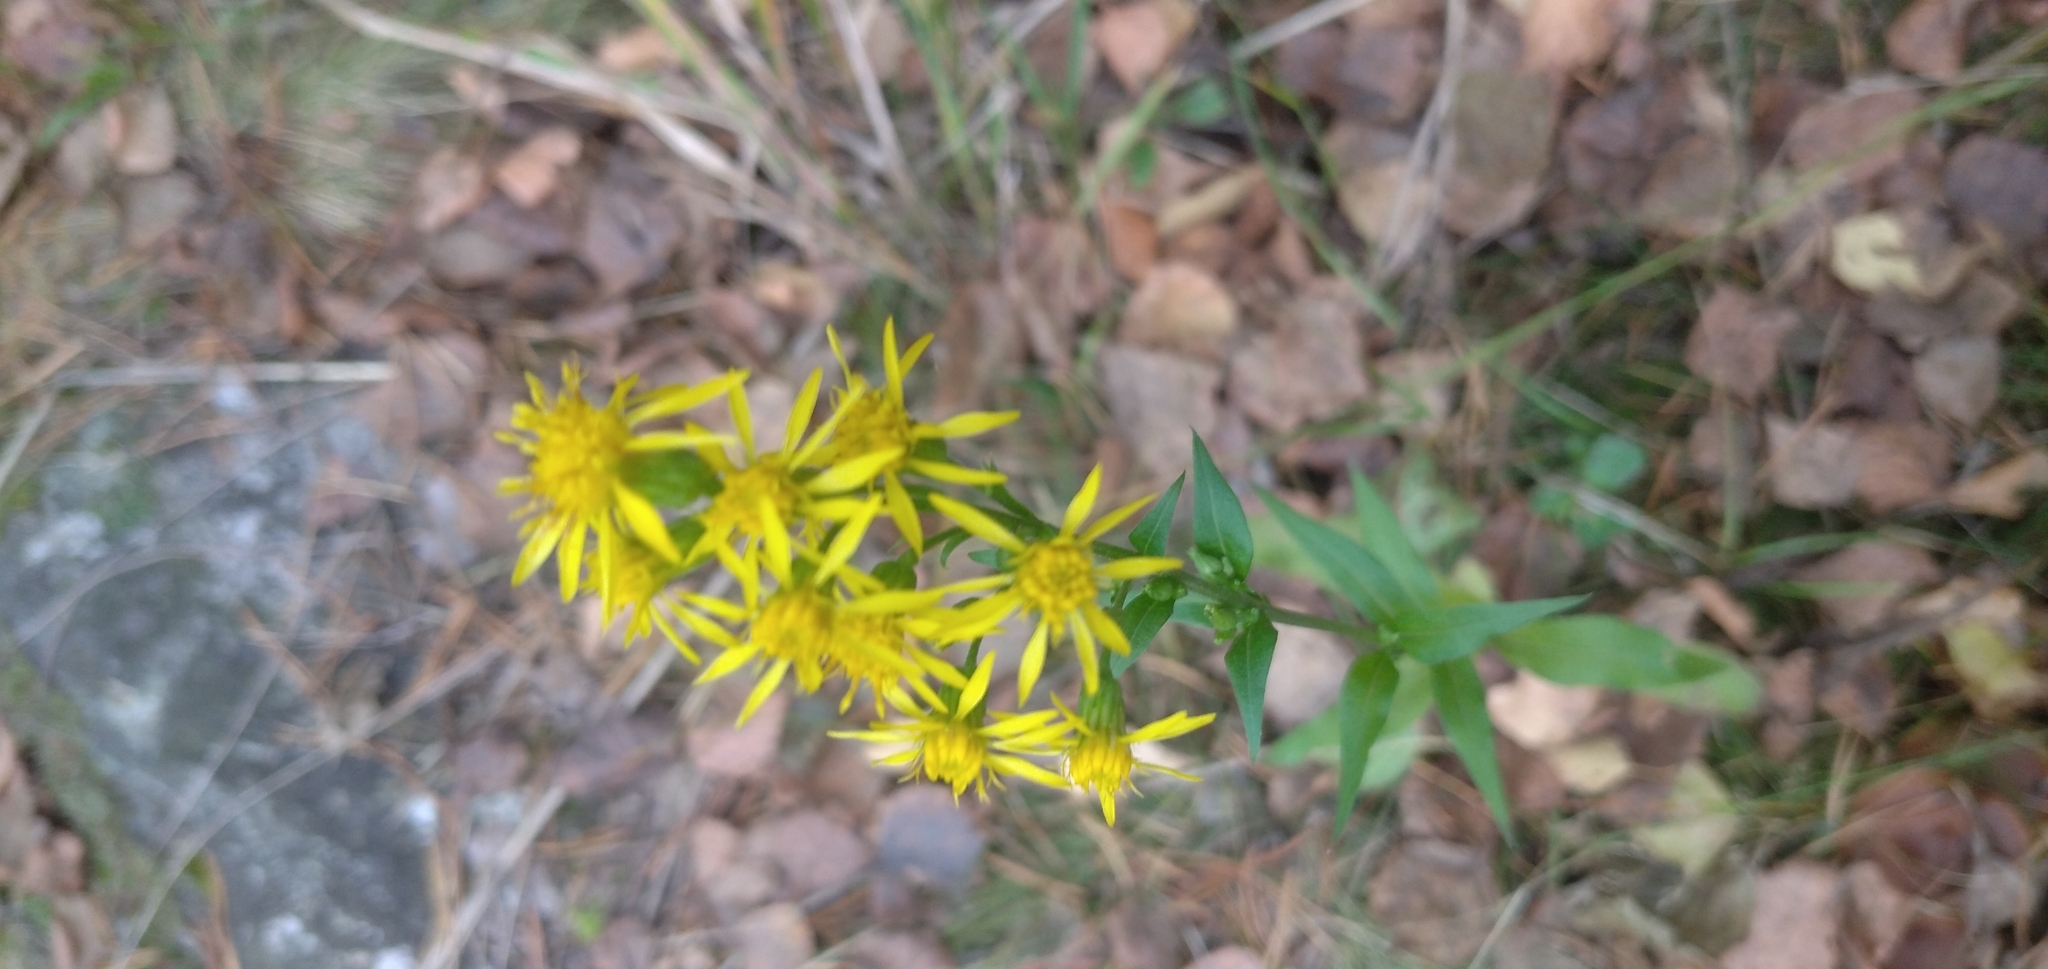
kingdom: Plantae
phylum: Tracheophyta
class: Magnoliopsida
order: Asterales
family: Asteraceae
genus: Solidago
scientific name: Solidago virgaurea
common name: Goldenrod
